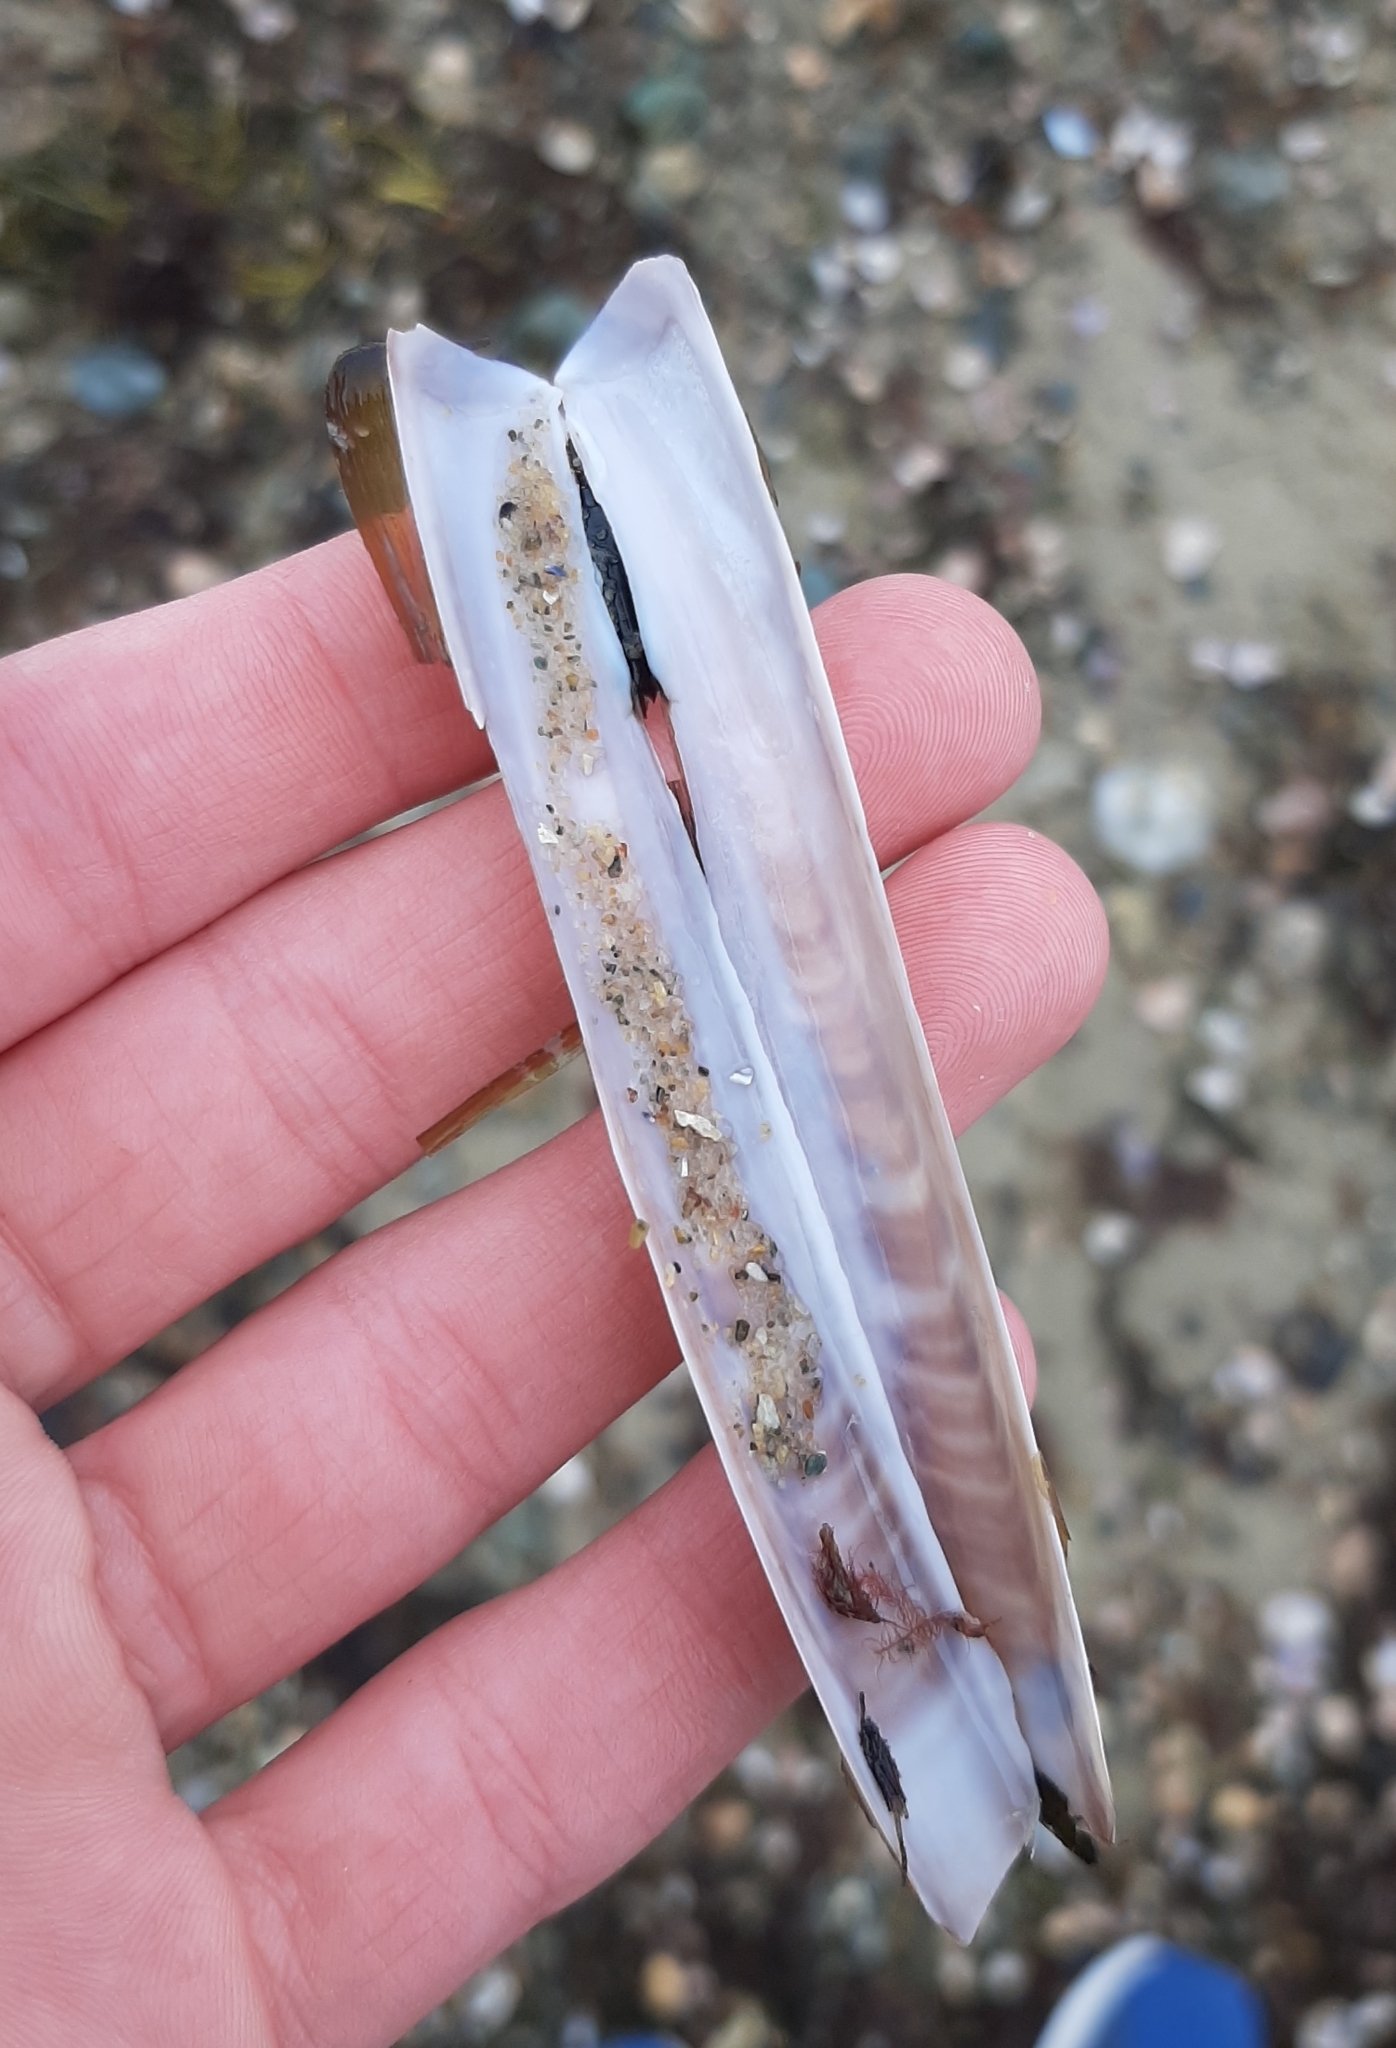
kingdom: Animalia
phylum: Mollusca
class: Bivalvia
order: Adapedonta
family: Pharidae
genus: Ensis
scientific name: Ensis leei
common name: American jack knife clam
